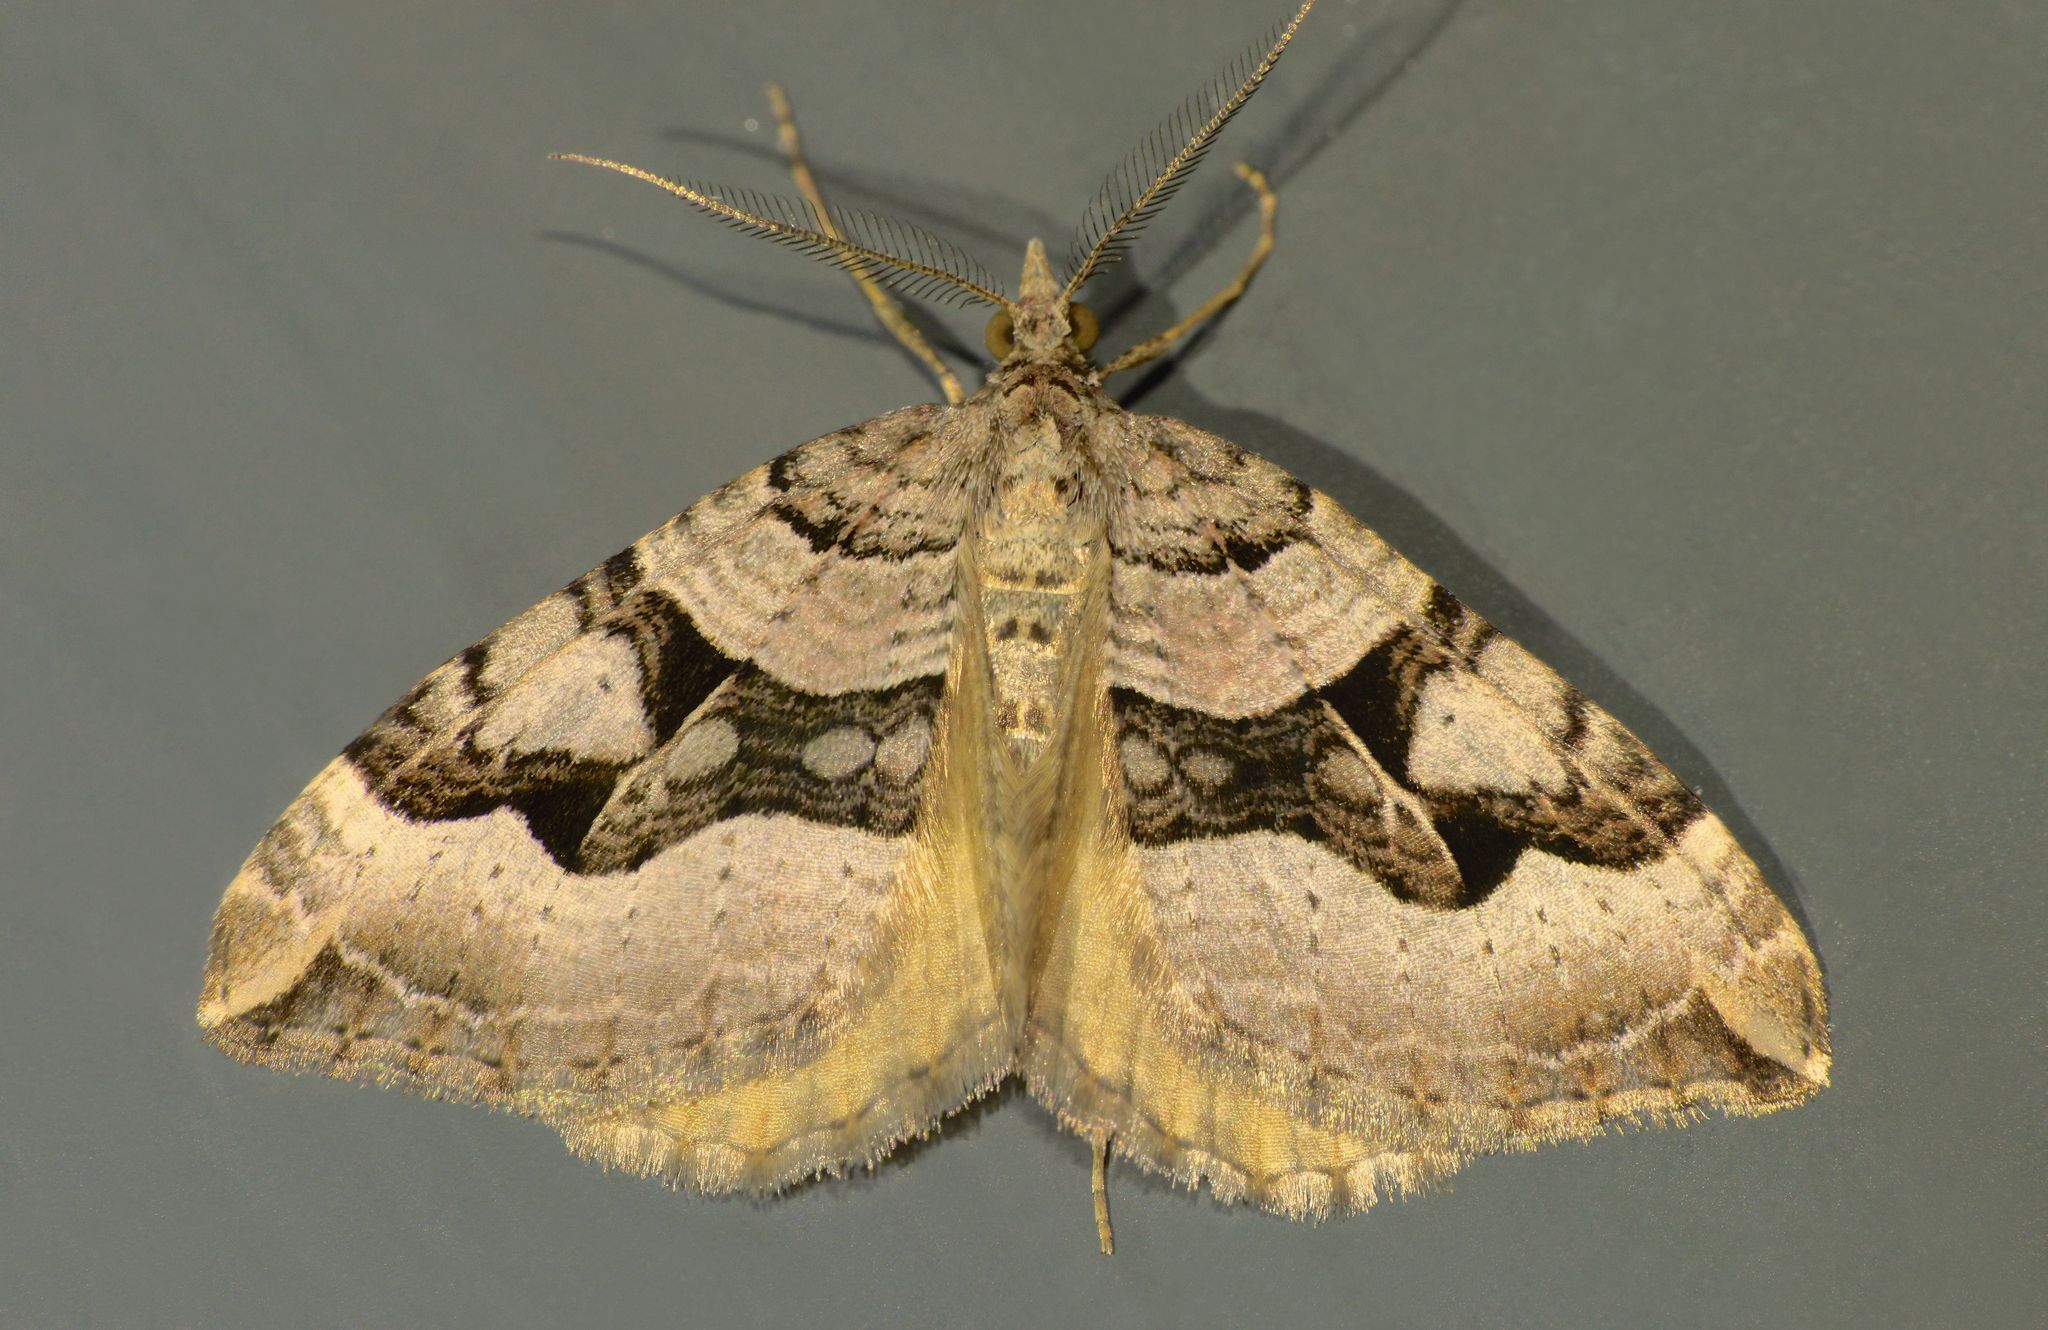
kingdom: Animalia
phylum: Arthropoda
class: Insecta
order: Lepidoptera
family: Geometridae
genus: Xanthorhoe
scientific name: Xanthorhoe semifissata
